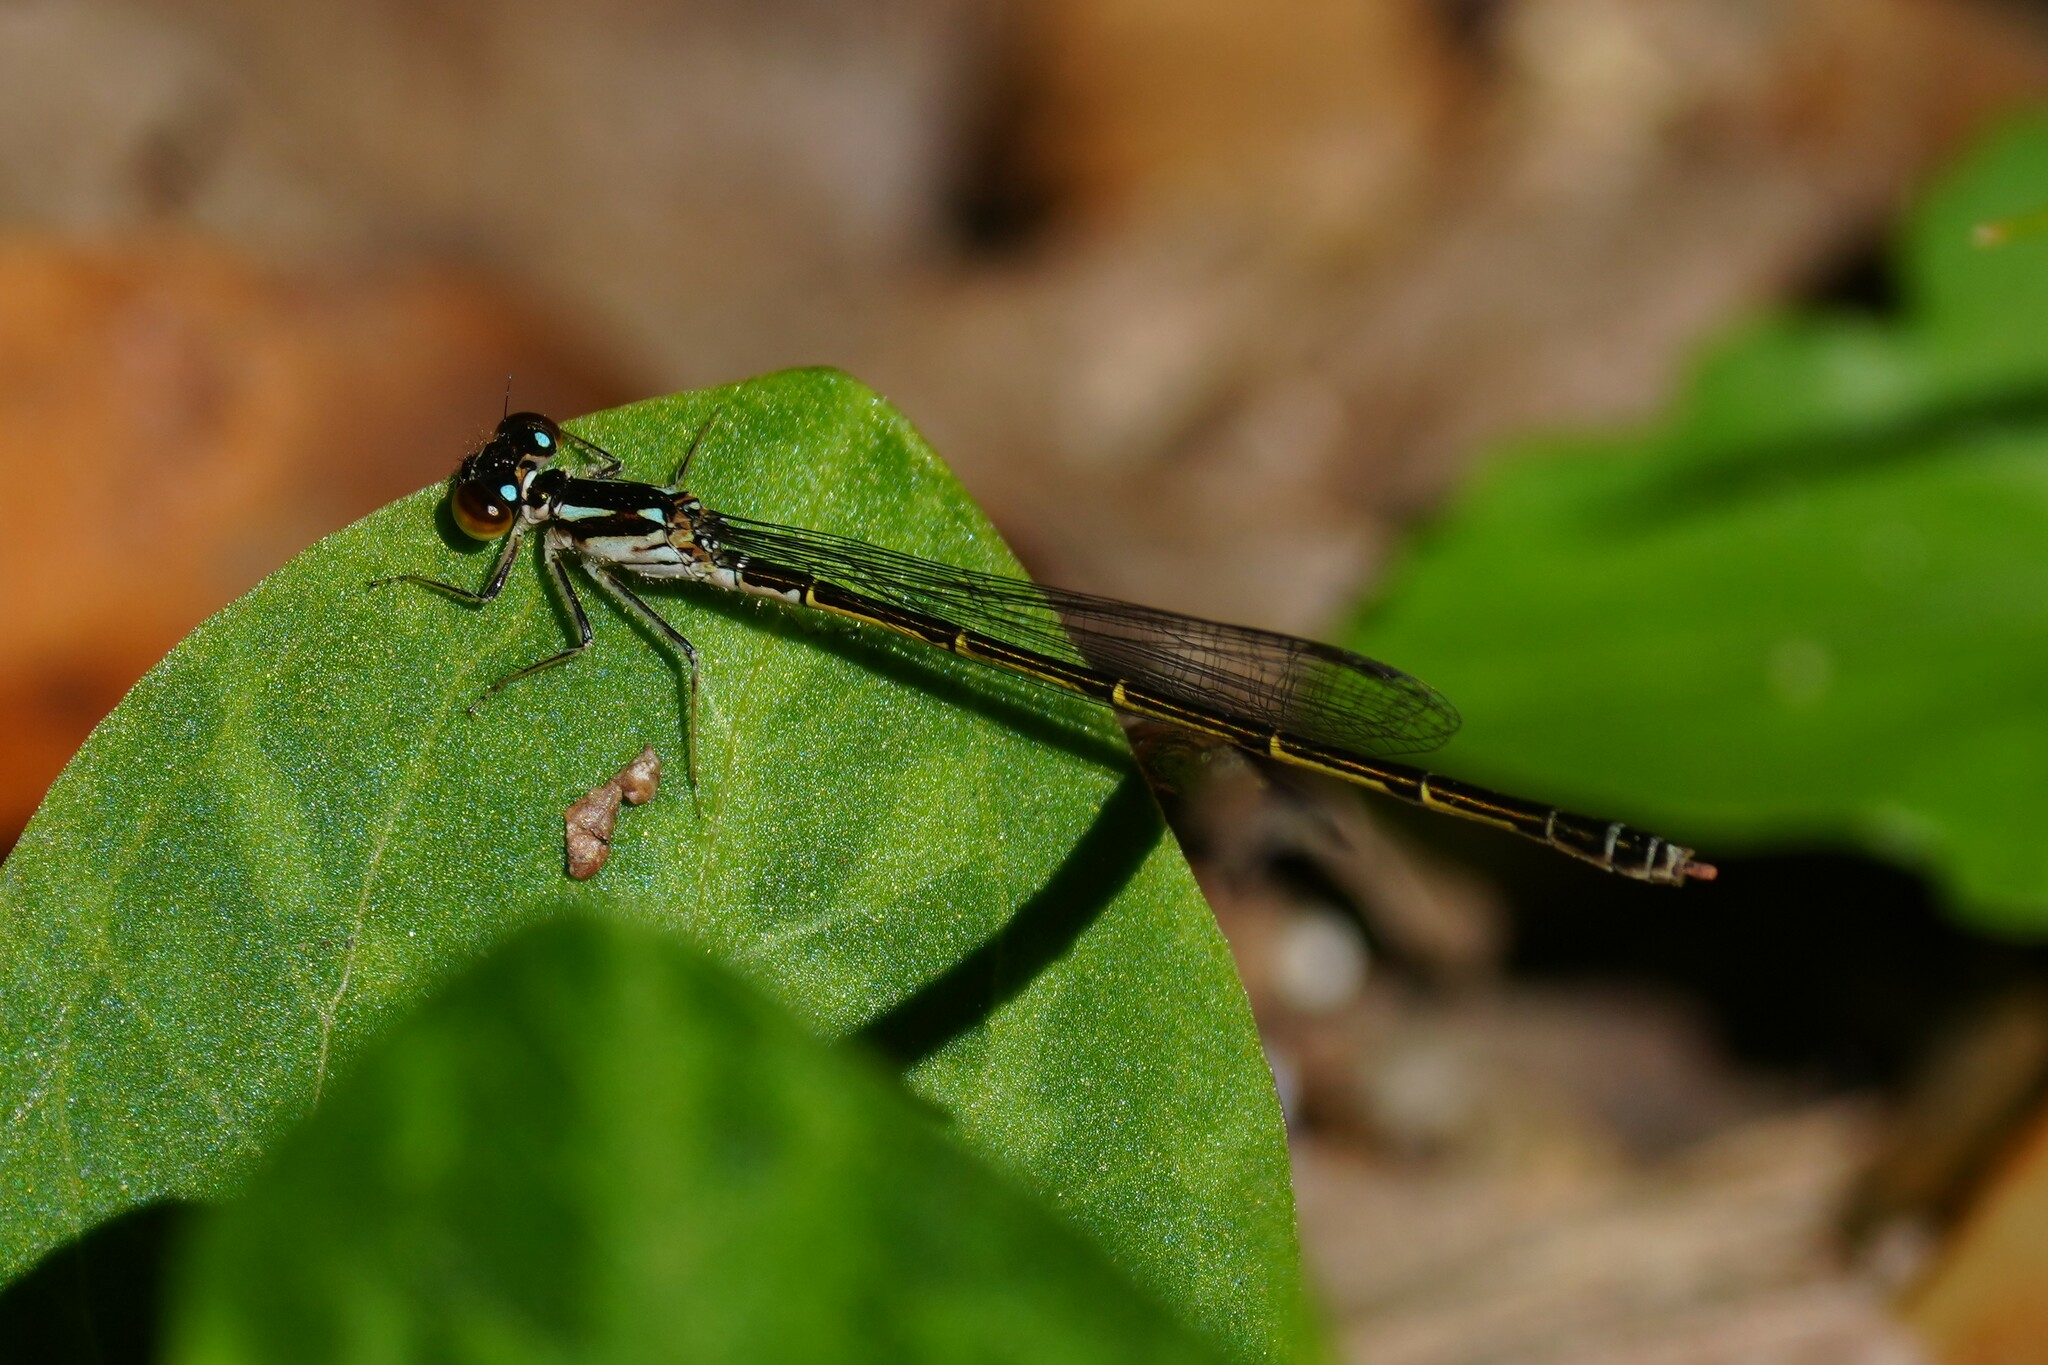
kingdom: Animalia
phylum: Arthropoda
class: Insecta
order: Odonata
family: Coenagrionidae
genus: Ischnura
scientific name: Ischnura posita
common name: Fragile forktail
